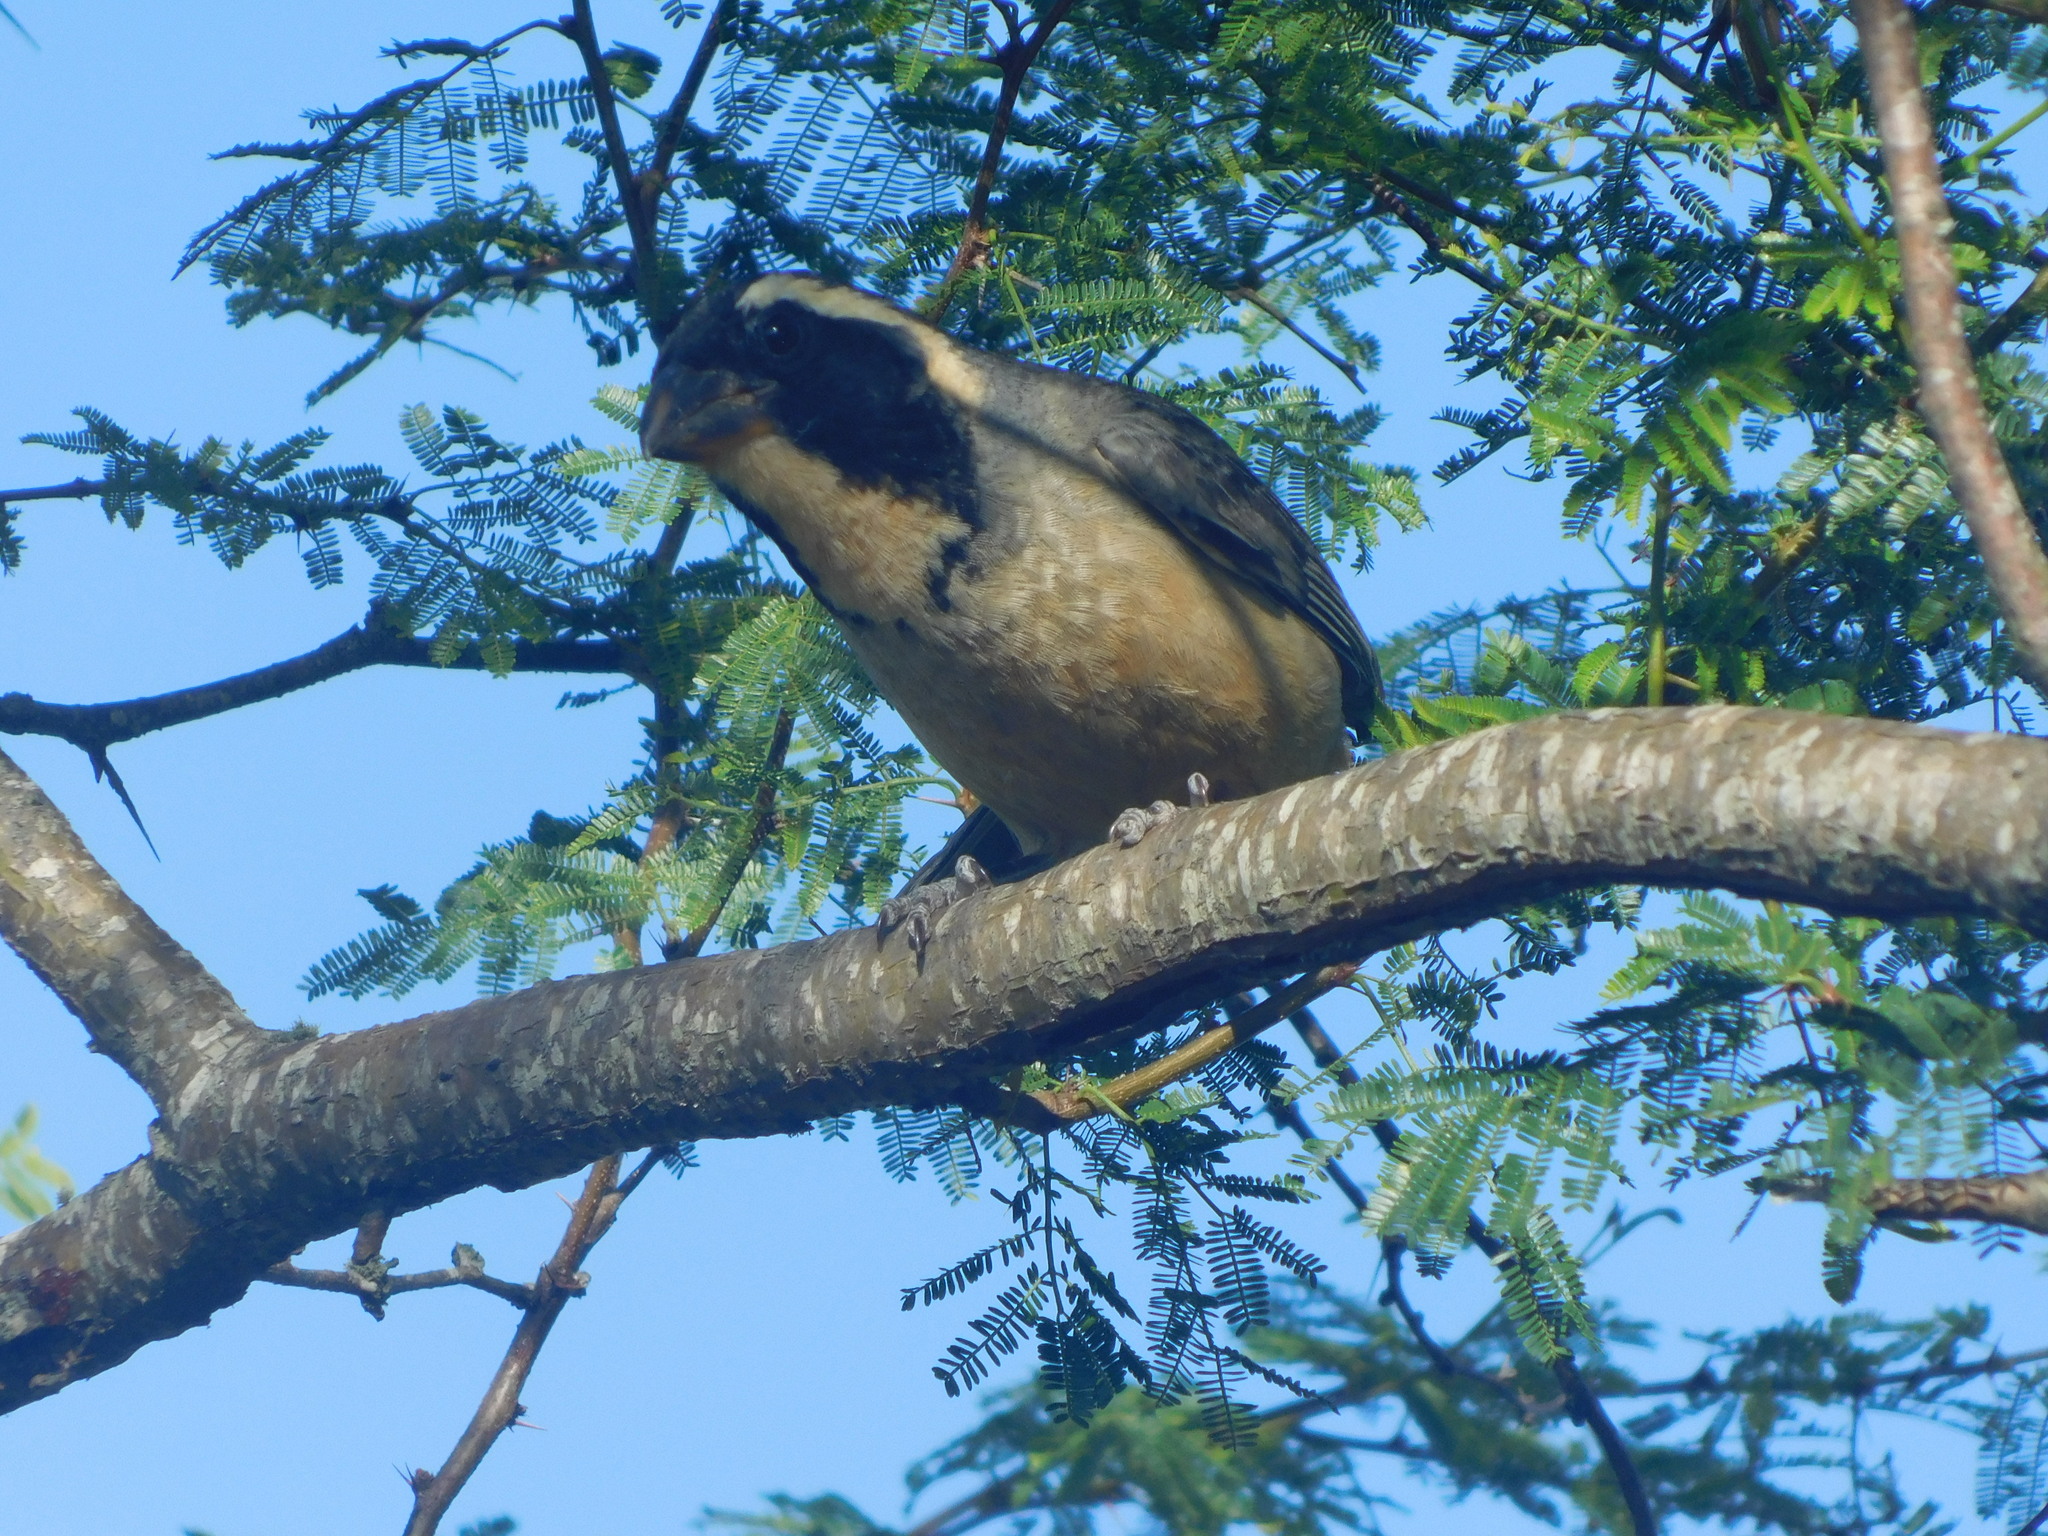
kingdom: Animalia
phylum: Chordata
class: Aves
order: Passeriformes
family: Thraupidae
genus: Saltator
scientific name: Saltator aurantiirostris
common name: Golden-billed saltator
